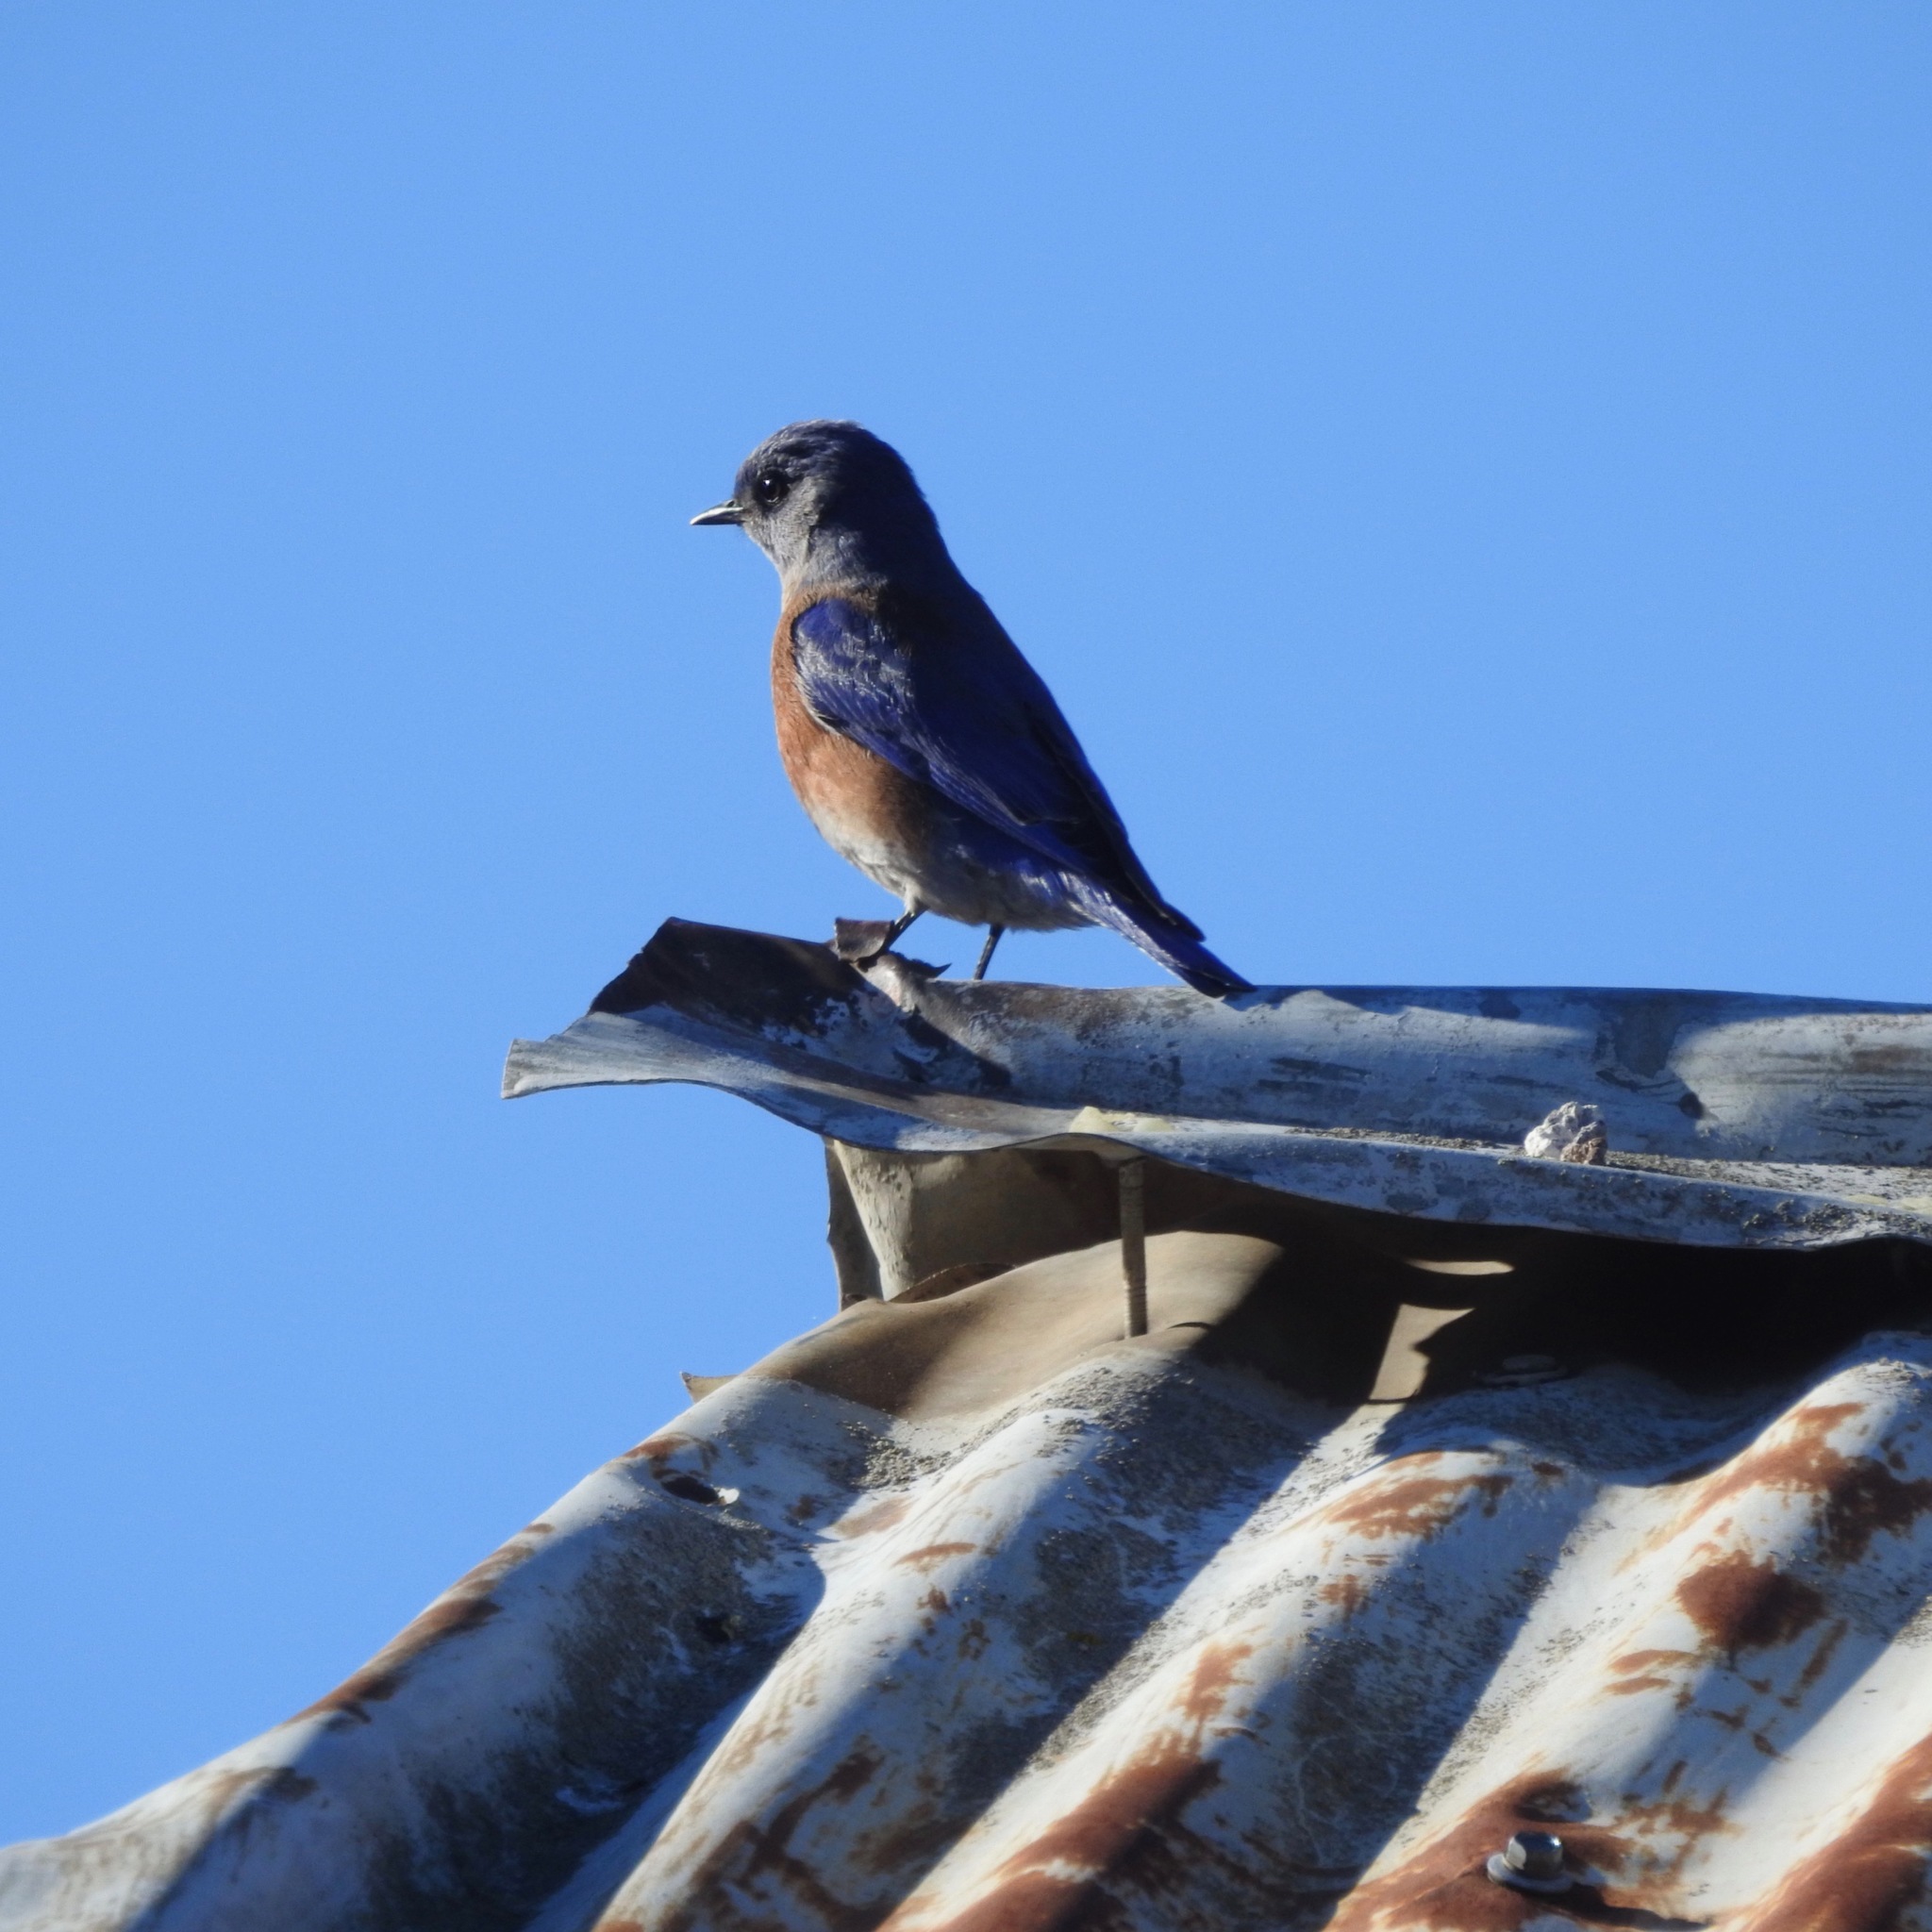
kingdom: Animalia
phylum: Chordata
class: Aves
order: Passeriformes
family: Turdidae
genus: Sialia
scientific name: Sialia mexicana
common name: Western bluebird
